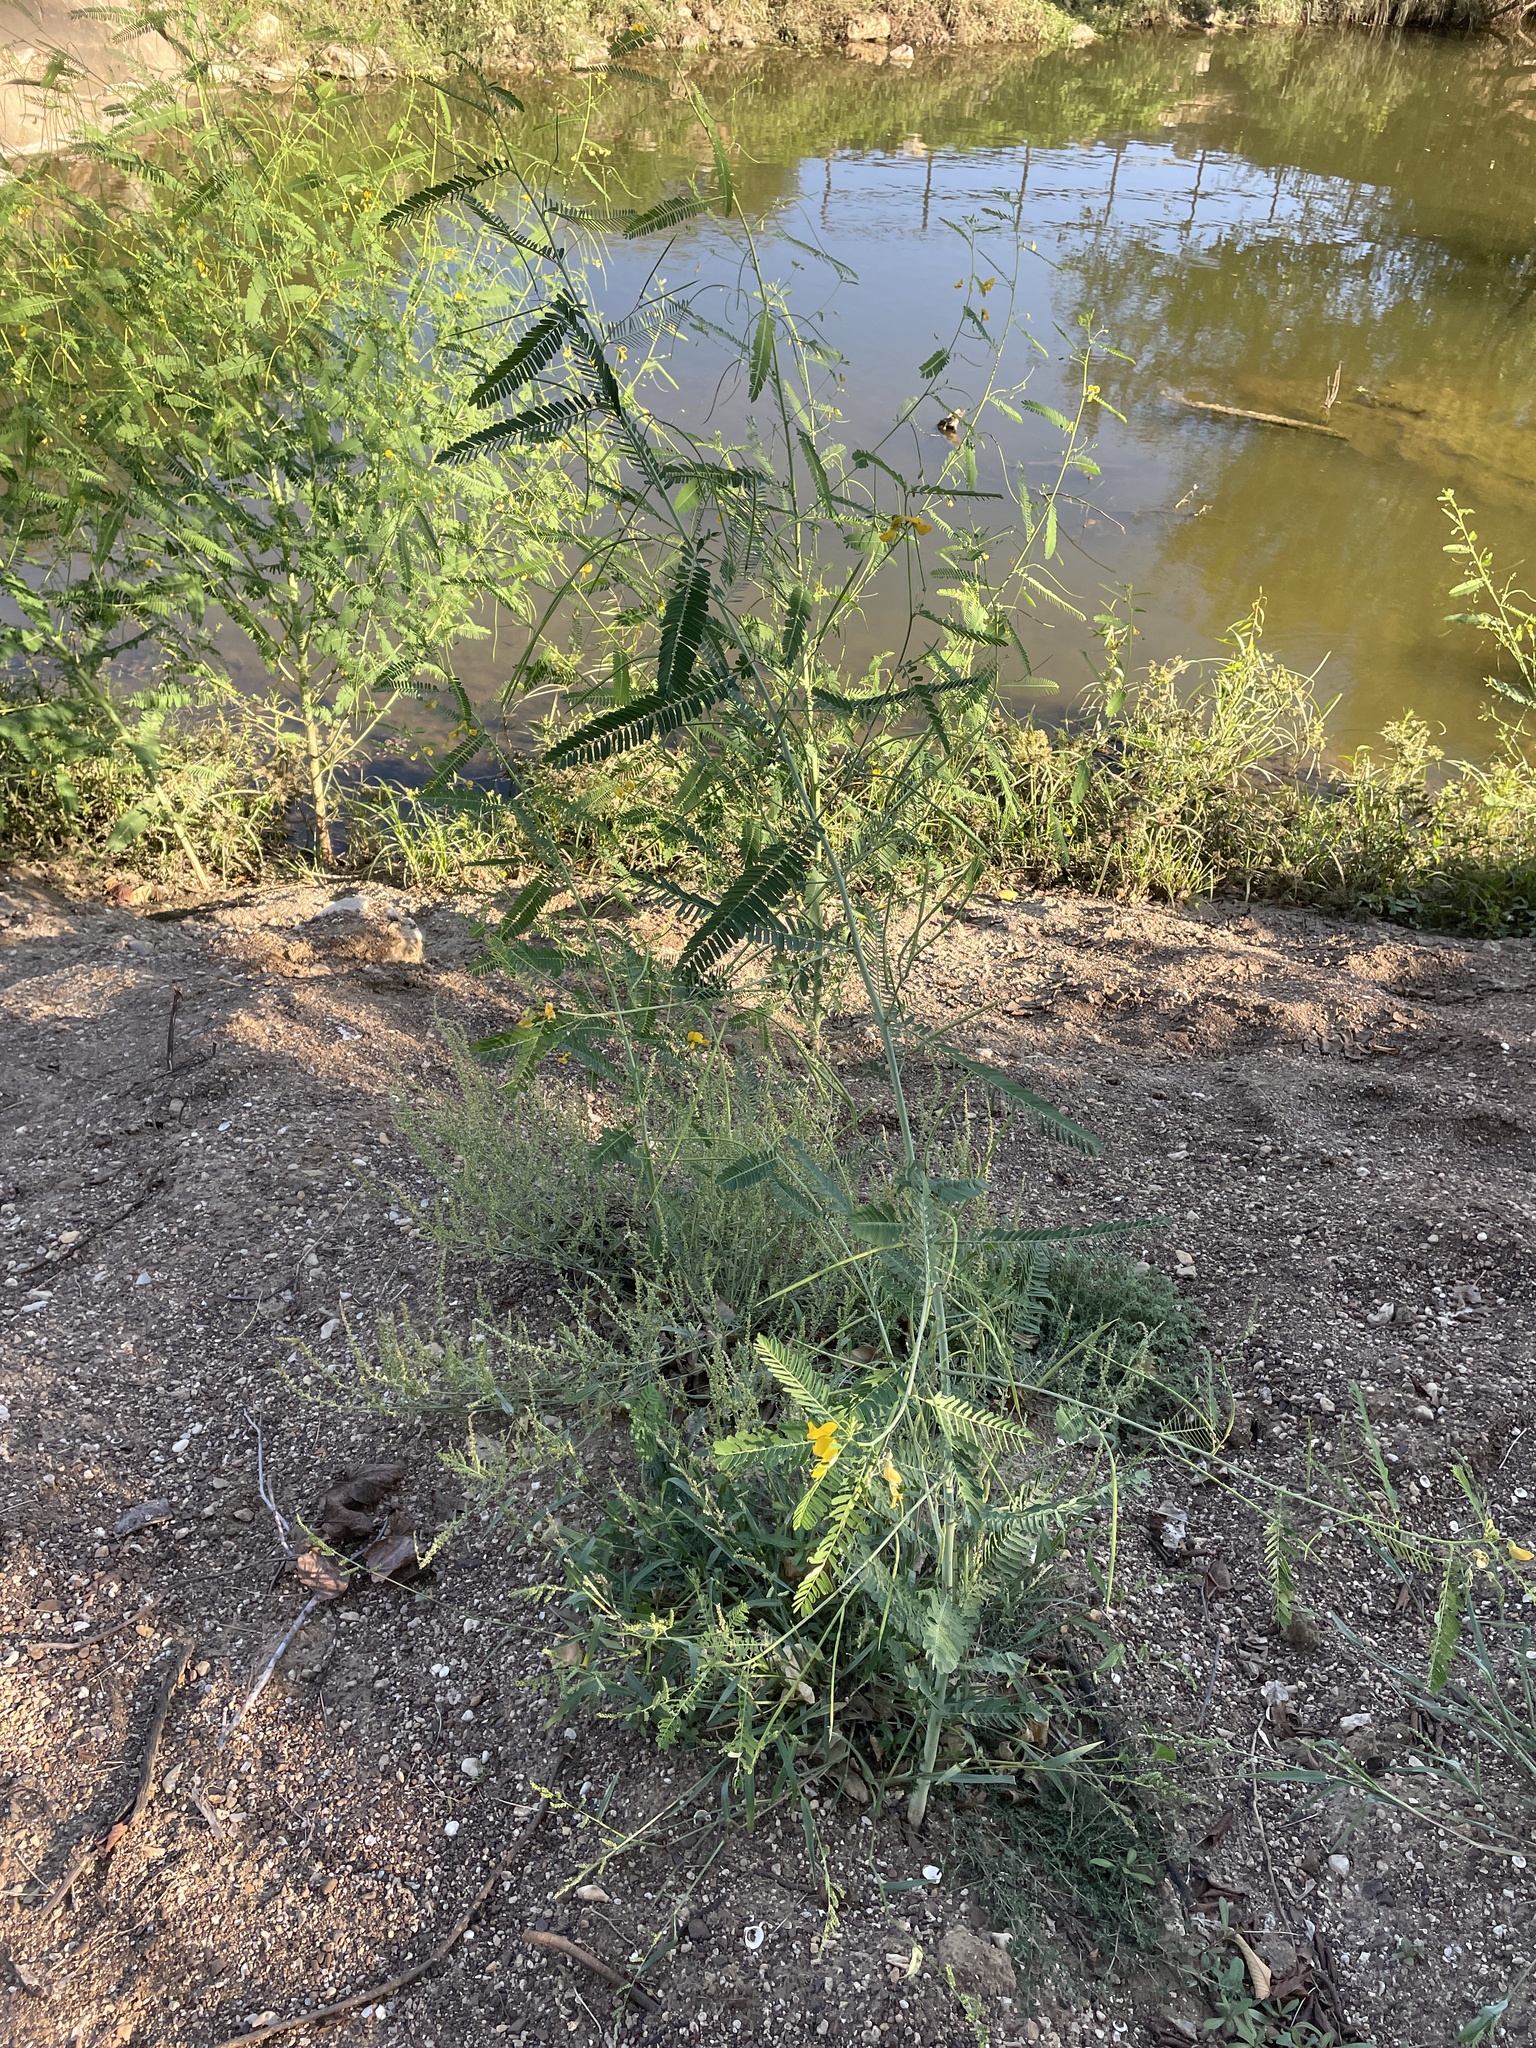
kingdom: Plantae
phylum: Tracheophyta
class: Magnoliopsida
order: Fabales
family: Fabaceae
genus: Sesbania
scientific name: Sesbania herbacea
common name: Bigpod sesbania
